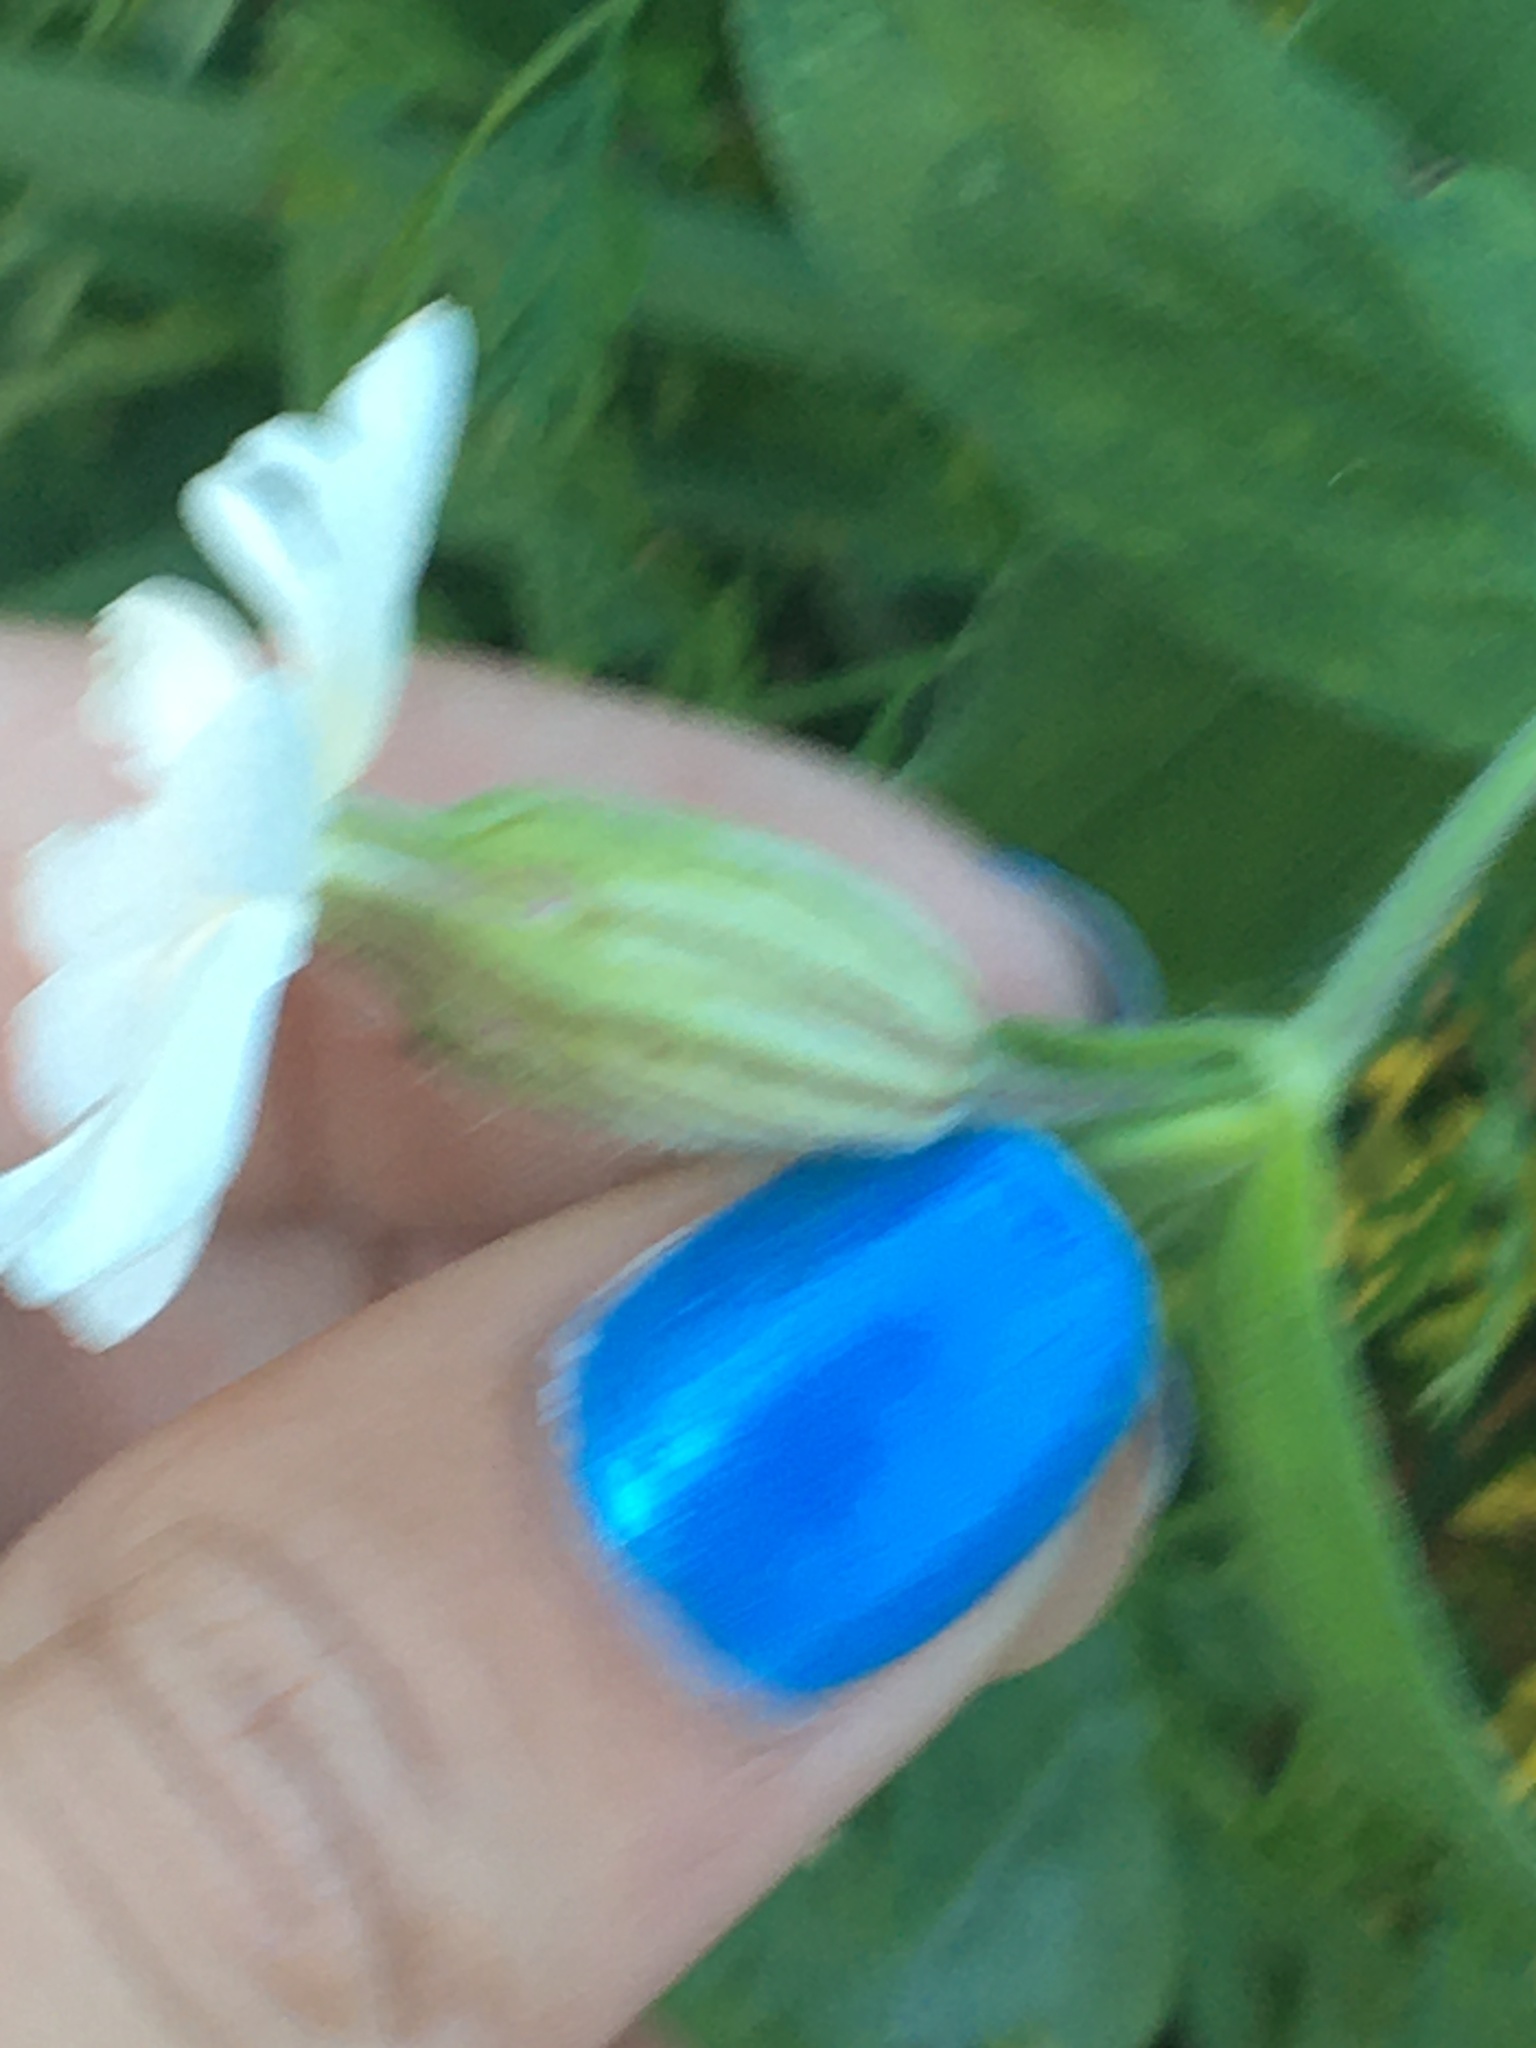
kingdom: Plantae
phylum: Tracheophyta
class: Magnoliopsida
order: Caryophyllales
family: Caryophyllaceae
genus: Silene
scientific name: Silene latifolia
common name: White campion
